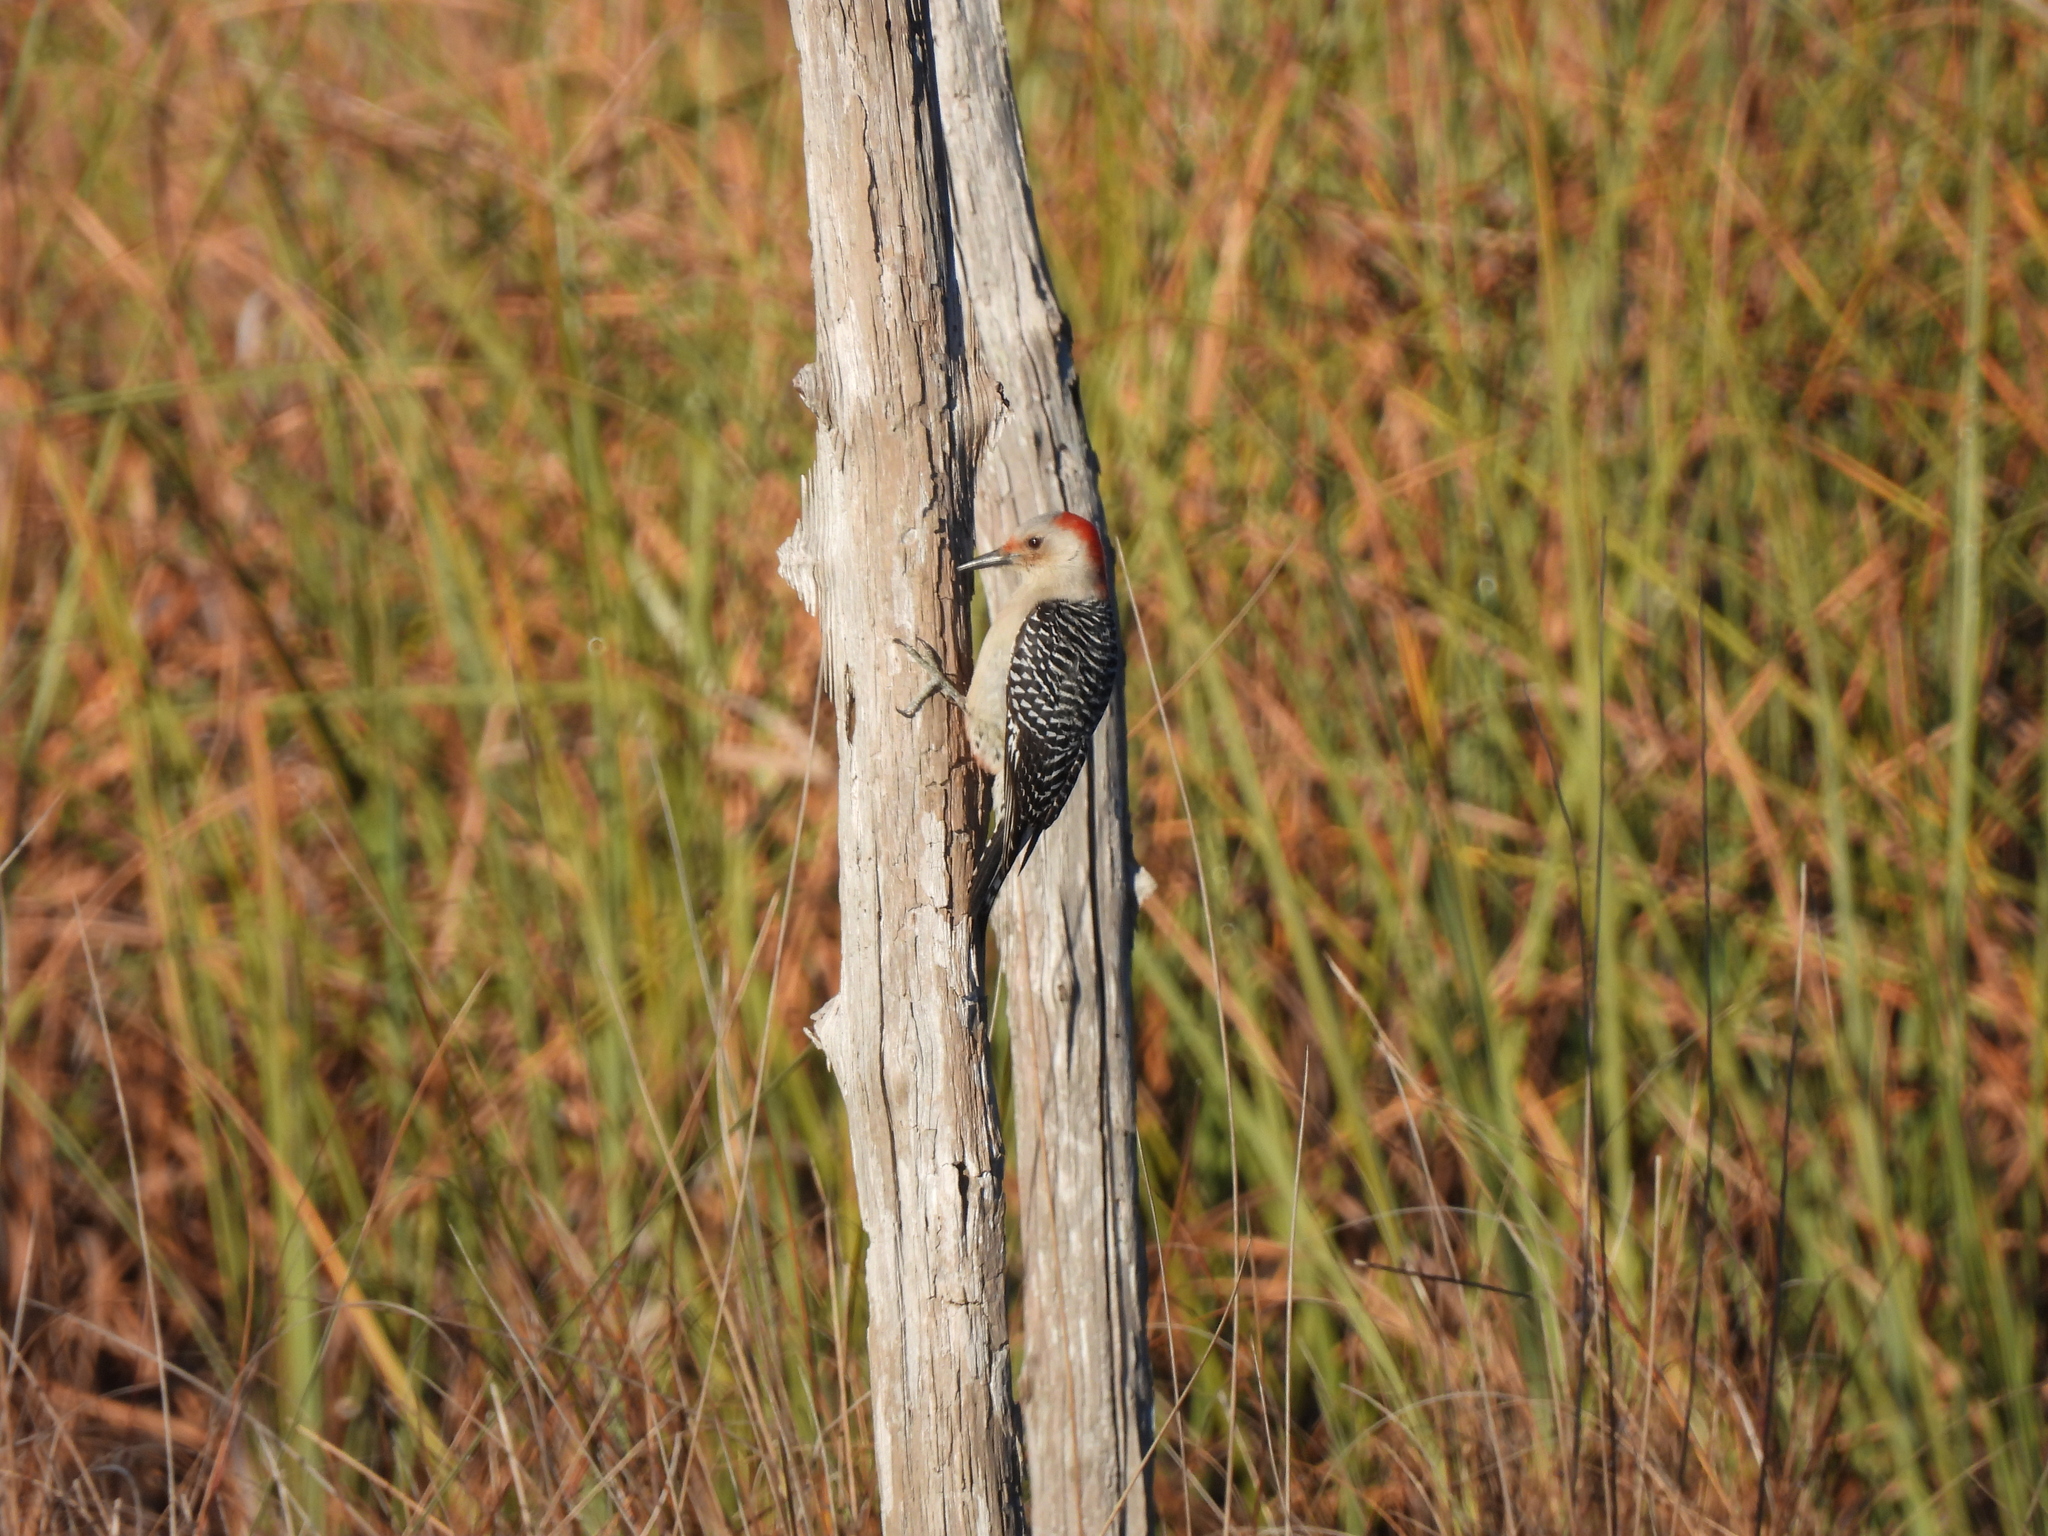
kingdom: Animalia
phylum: Chordata
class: Aves
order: Piciformes
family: Picidae
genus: Melanerpes
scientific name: Melanerpes carolinus
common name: Red-bellied woodpecker
